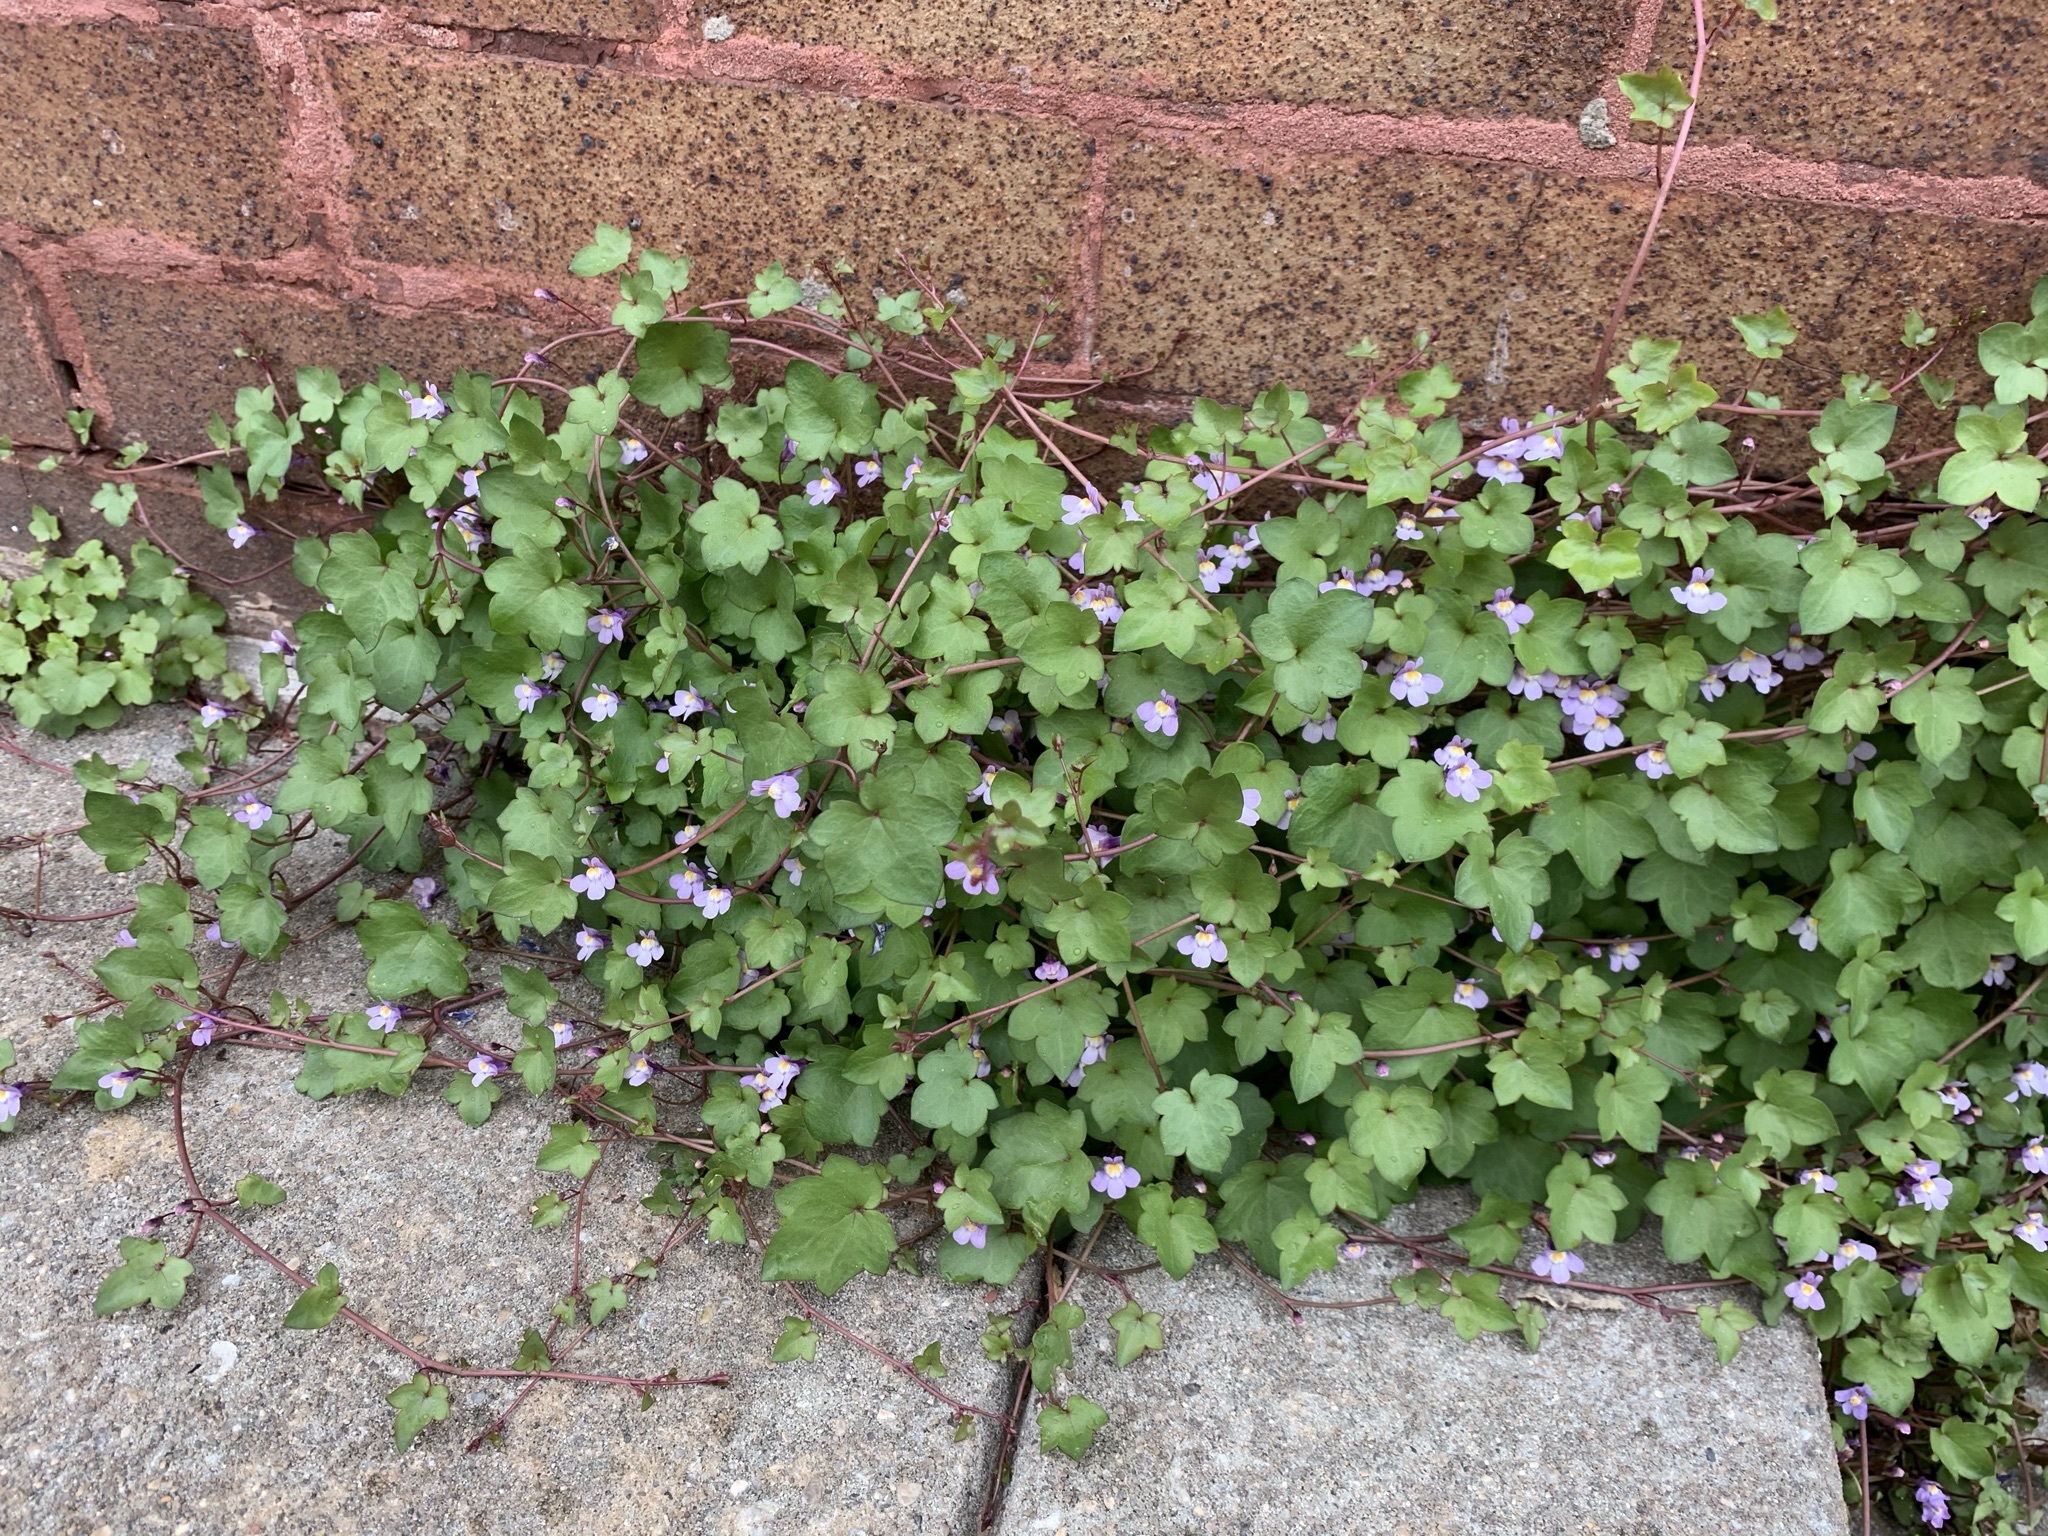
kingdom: Plantae
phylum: Tracheophyta
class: Magnoliopsida
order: Lamiales
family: Plantaginaceae
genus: Cymbalaria
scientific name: Cymbalaria muralis
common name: Ivy-leaved toadflax
